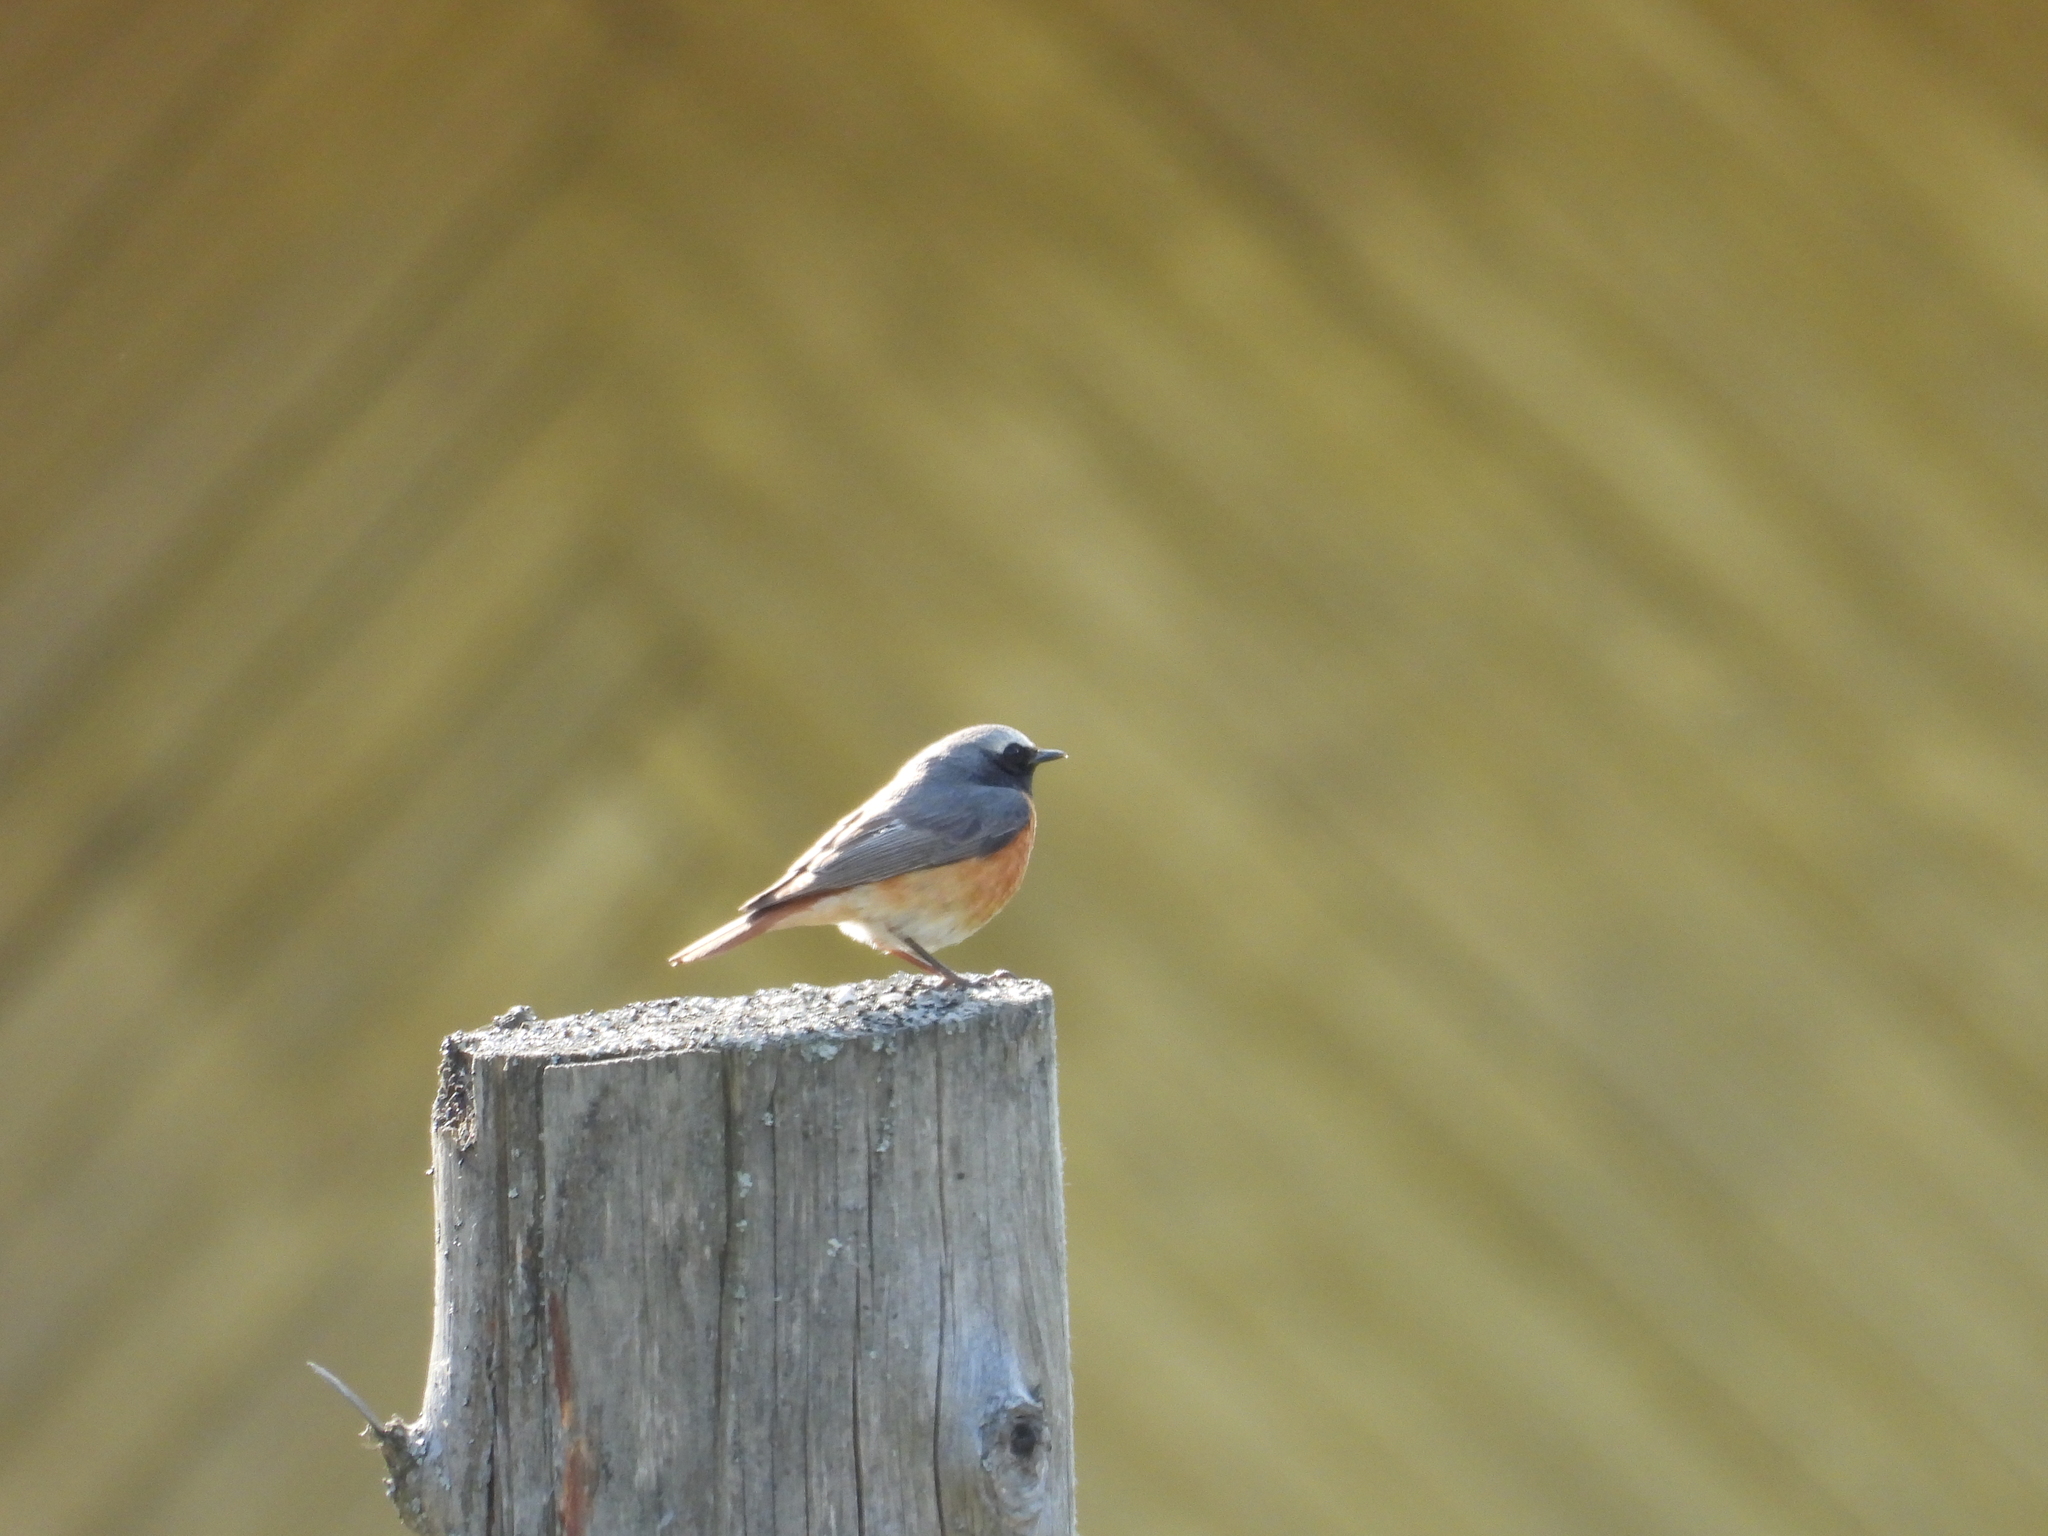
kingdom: Animalia
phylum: Chordata
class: Aves
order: Passeriformes
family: Muscicapidae
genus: Phoenicurus
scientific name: Phoenicurus phoenicurus
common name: Common redstart
